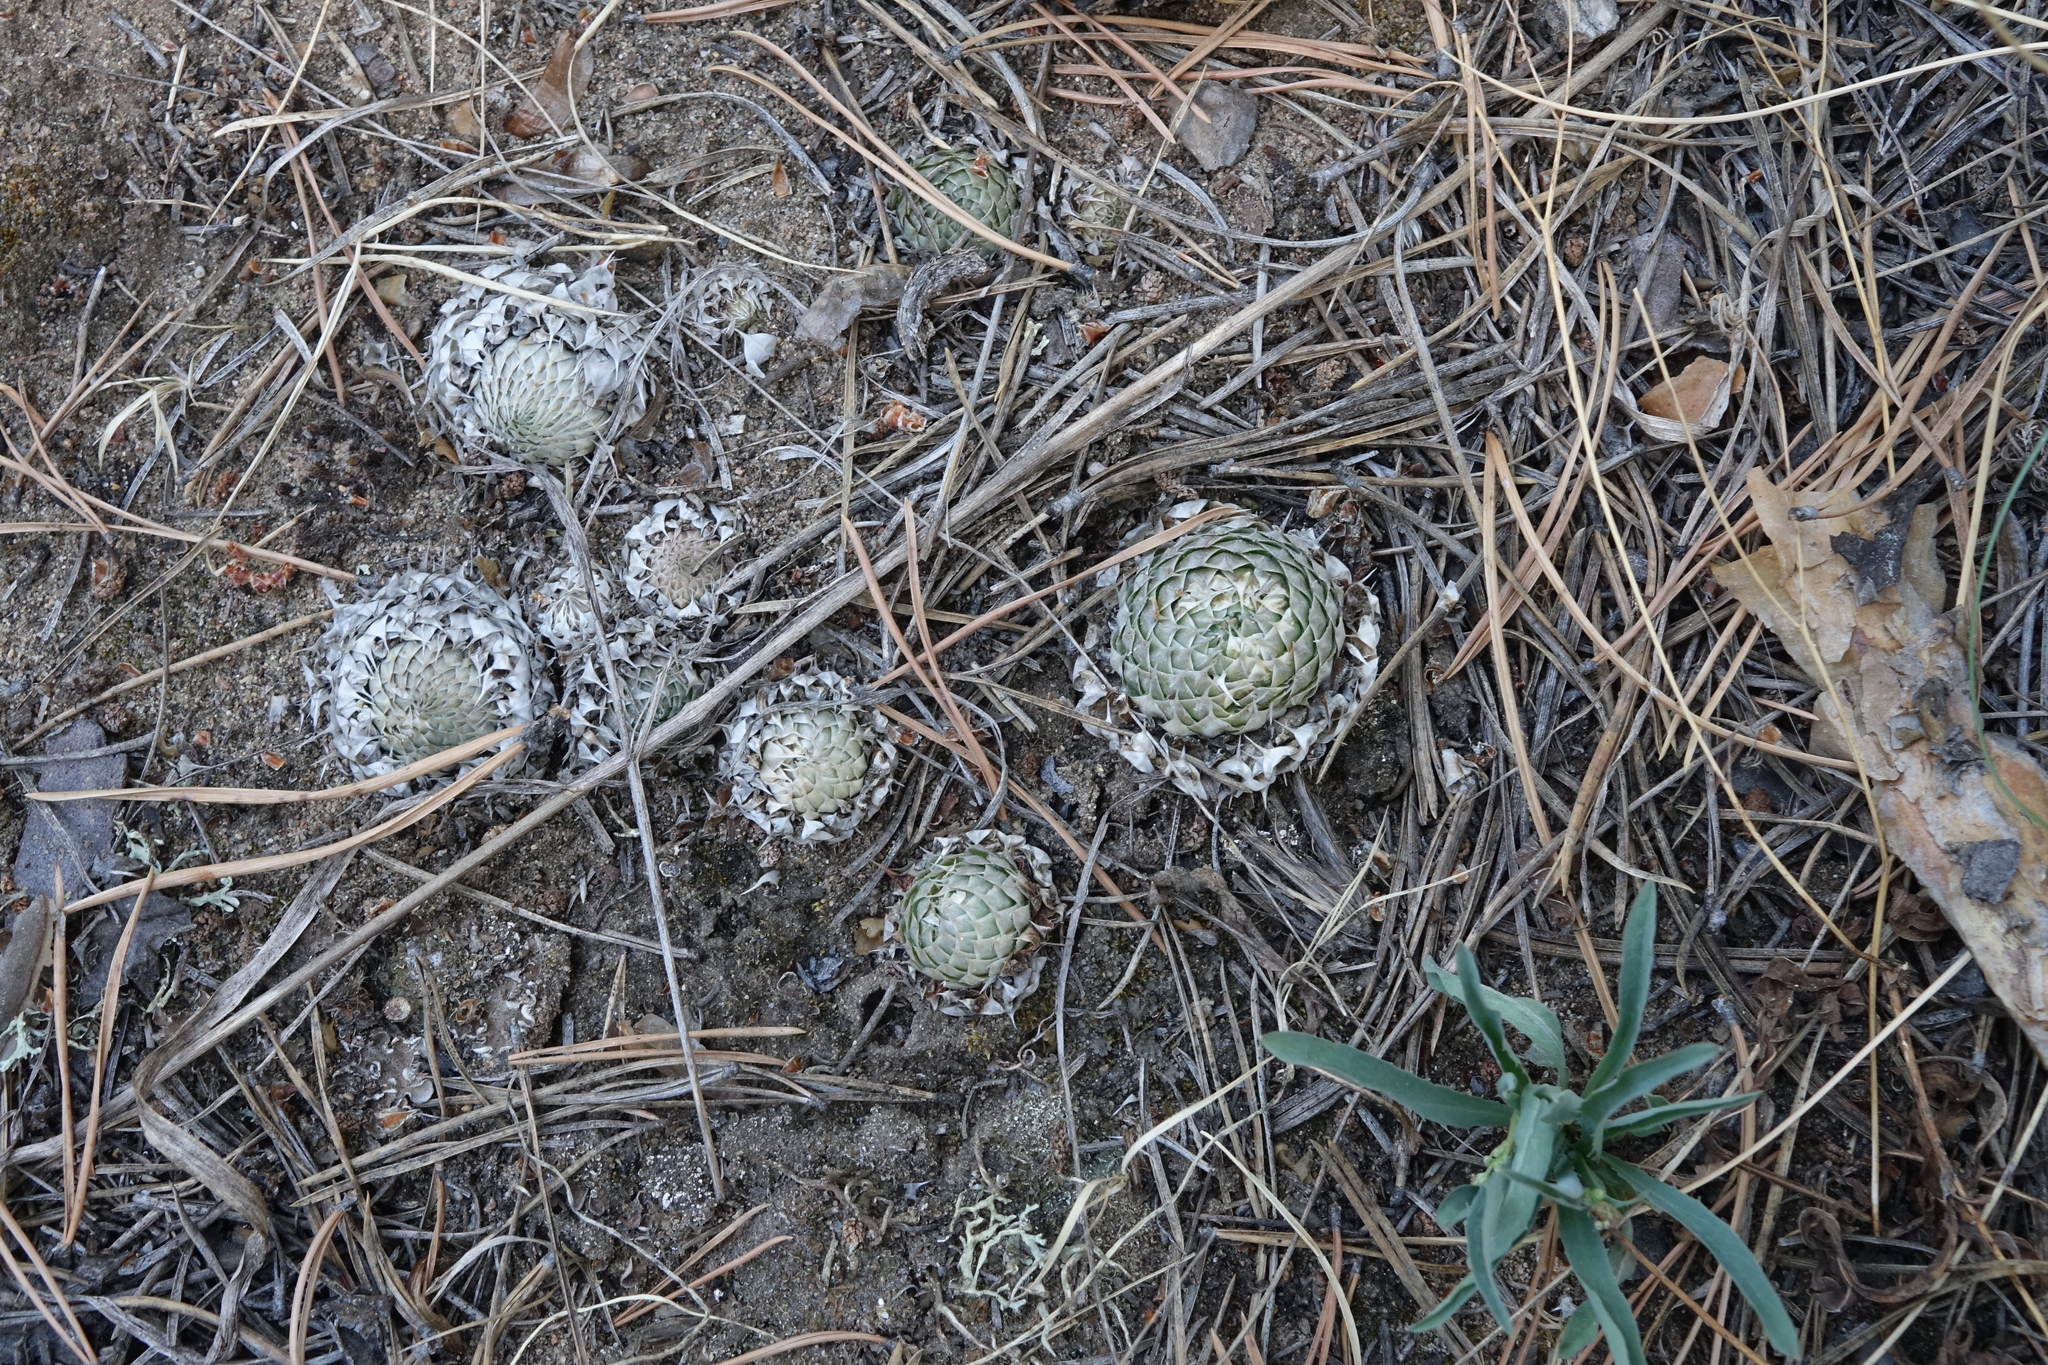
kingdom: Plantae
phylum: Tracheophyta
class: Magnoliopsida
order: Saxifragales
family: Crassulaceae
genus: Orostachys
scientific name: Orostachys spinosa
